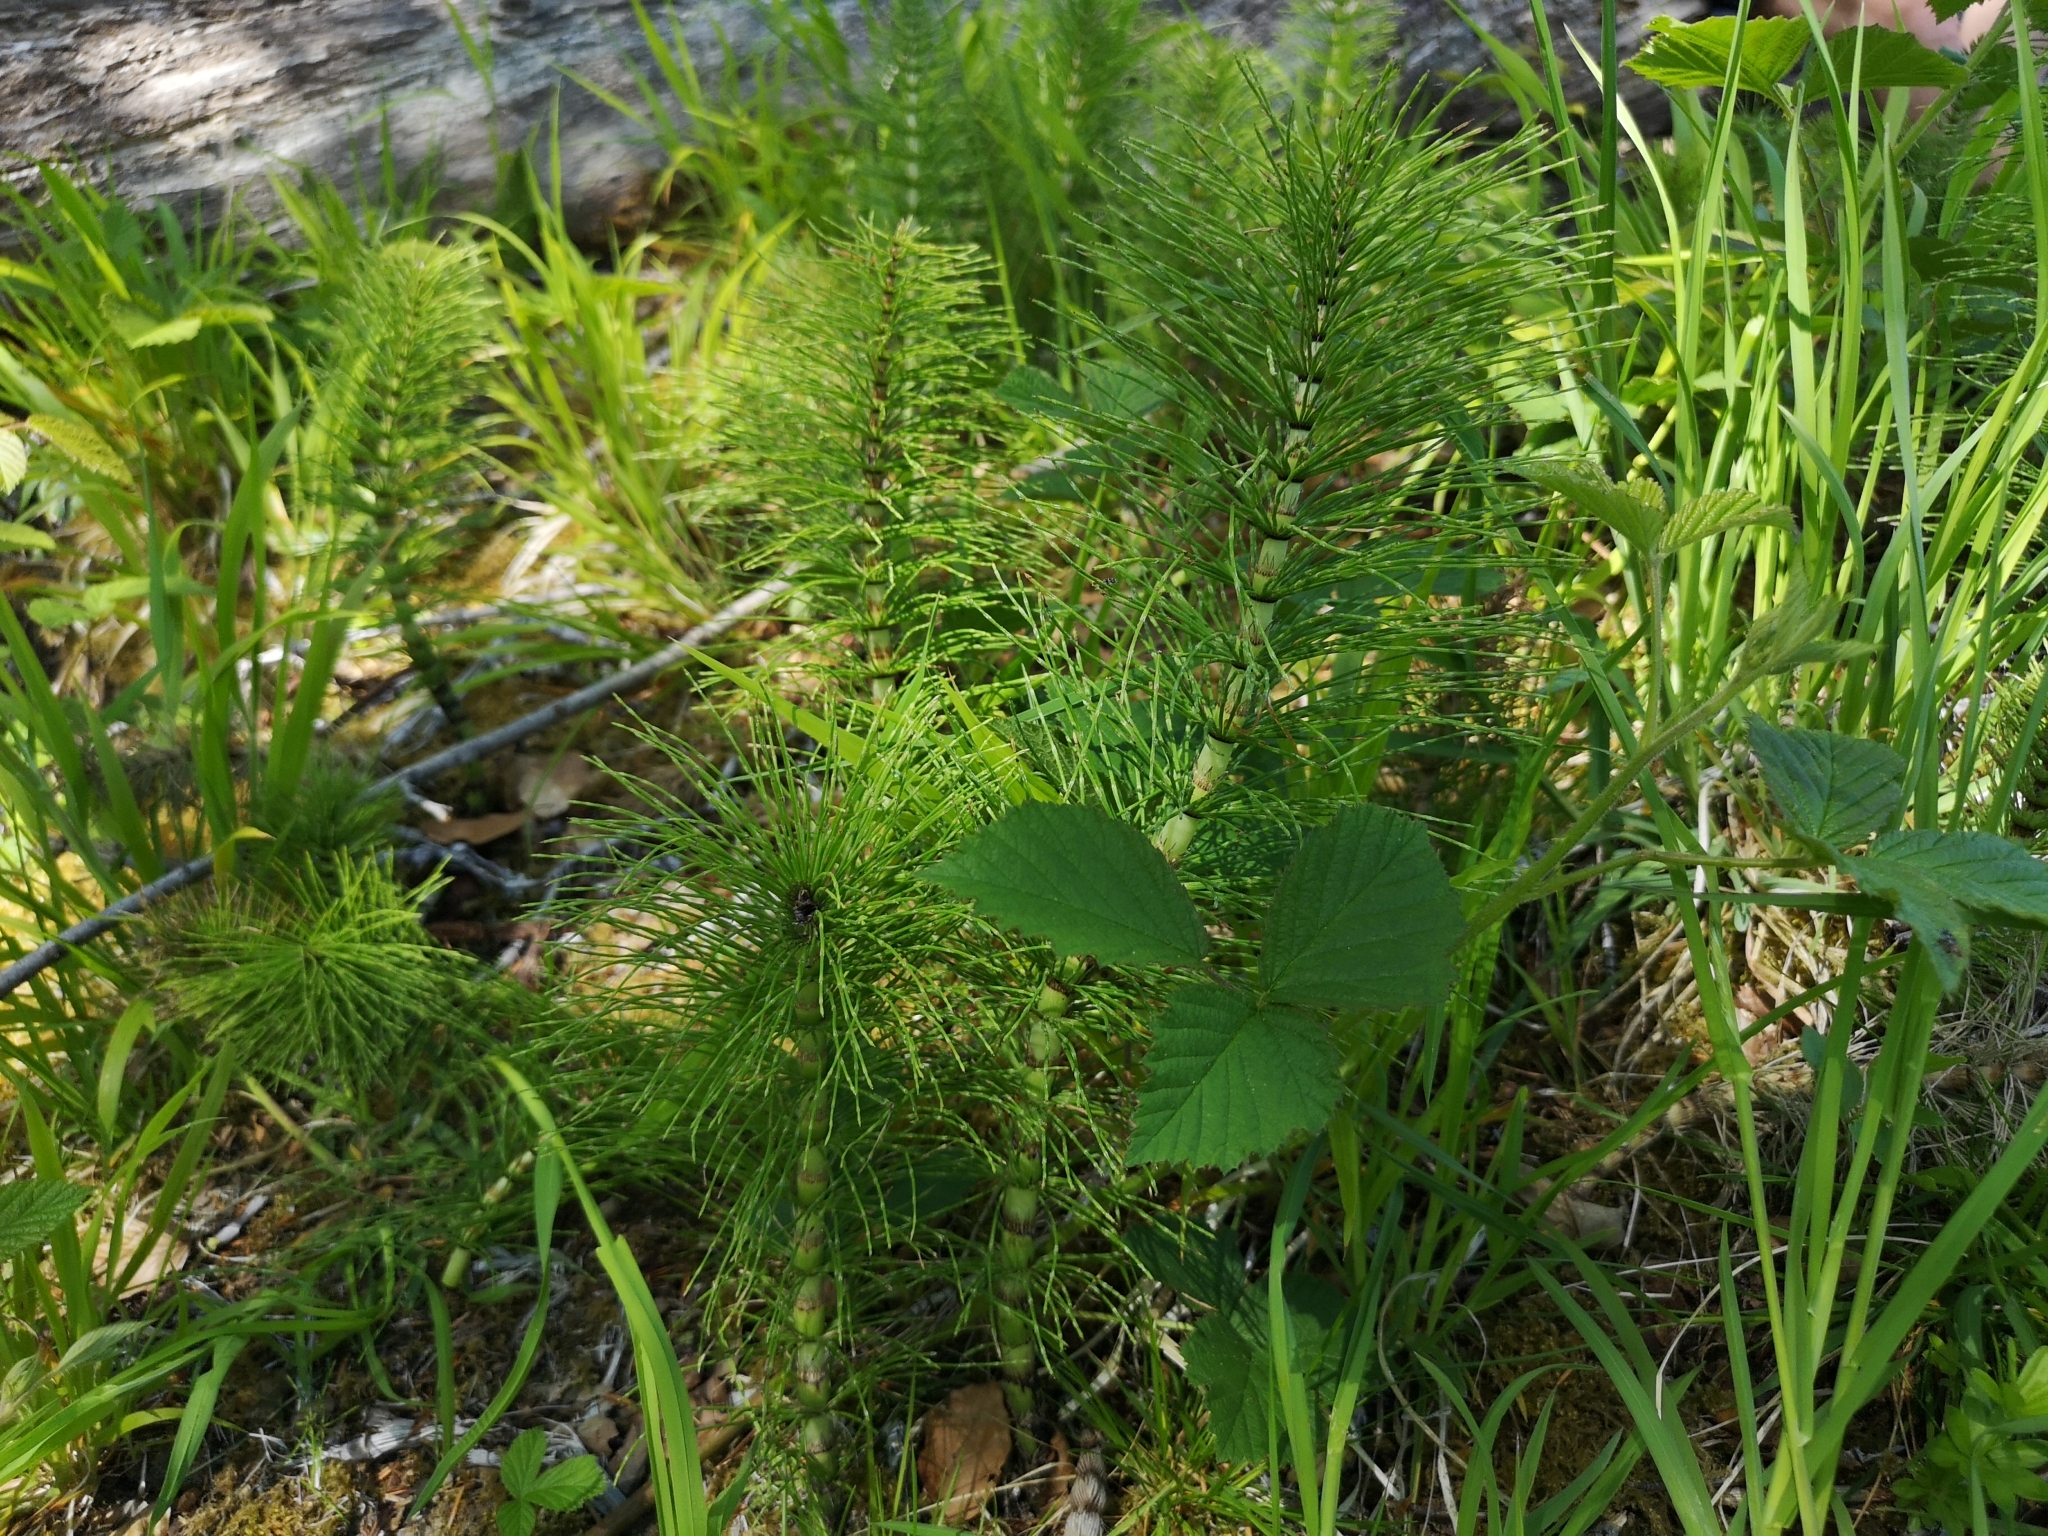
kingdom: Plantae
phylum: Tracheophyta
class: Polypodiopsida
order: Equisetales
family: Equisetaceae
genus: Equisetum
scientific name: Equisetum telmateia
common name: Great horsetail
